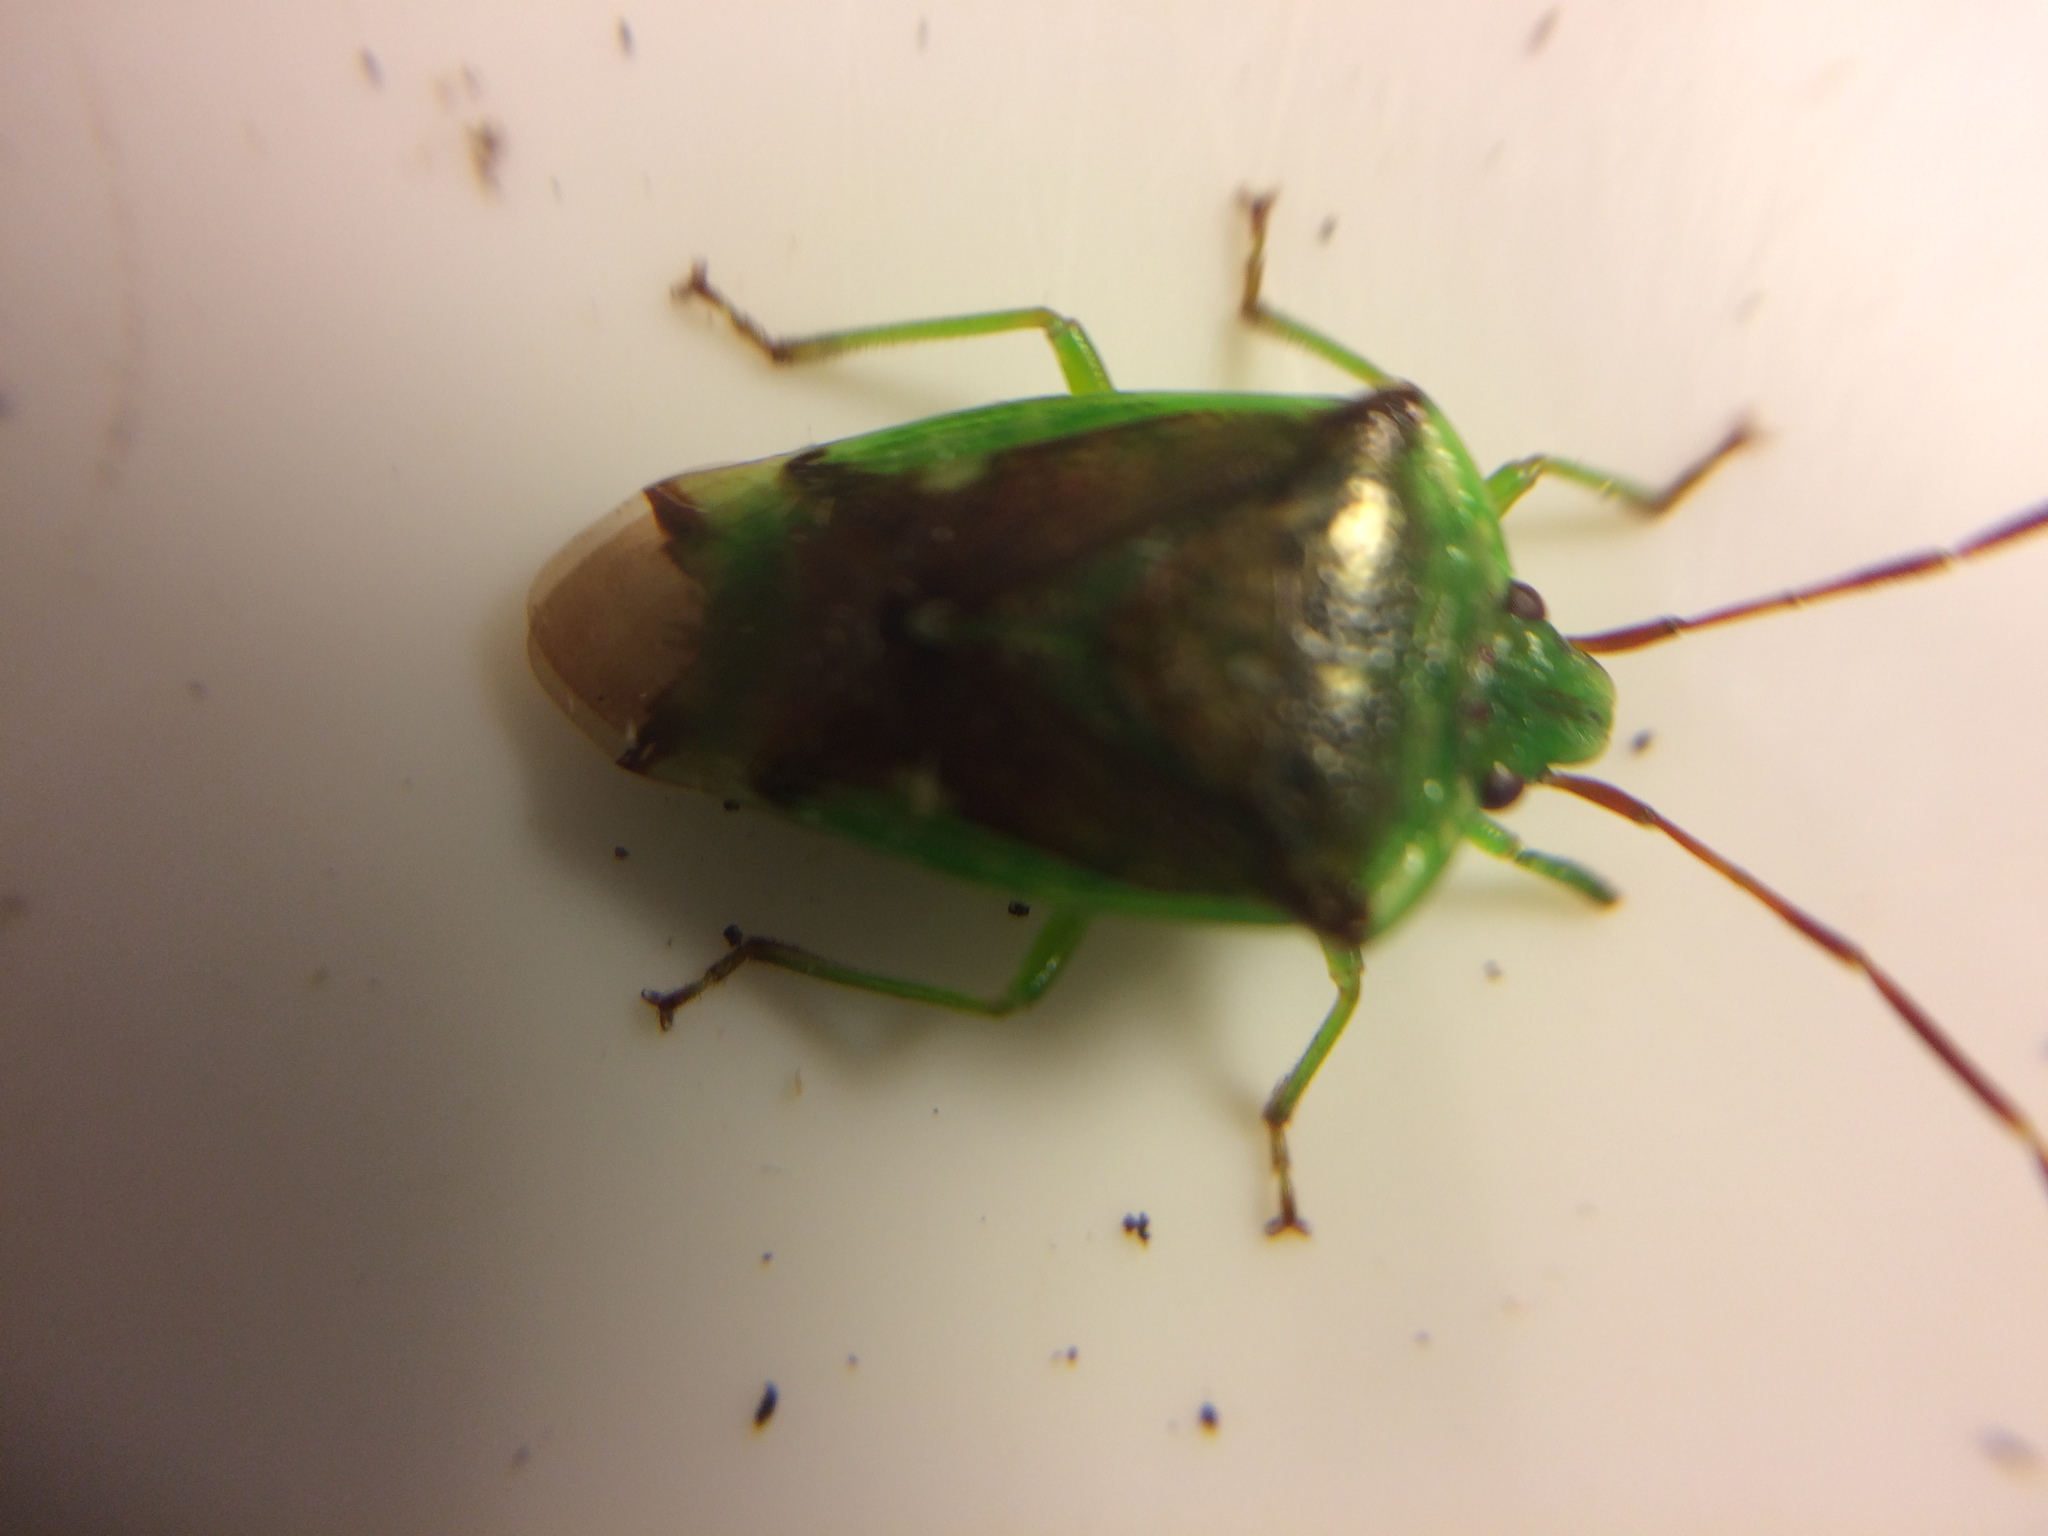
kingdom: Animalia
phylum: Arthropoda
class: Insecta
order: Hemiptera
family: Acanthosomatidae
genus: Oncacontias
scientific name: Oncacontias vittatus
